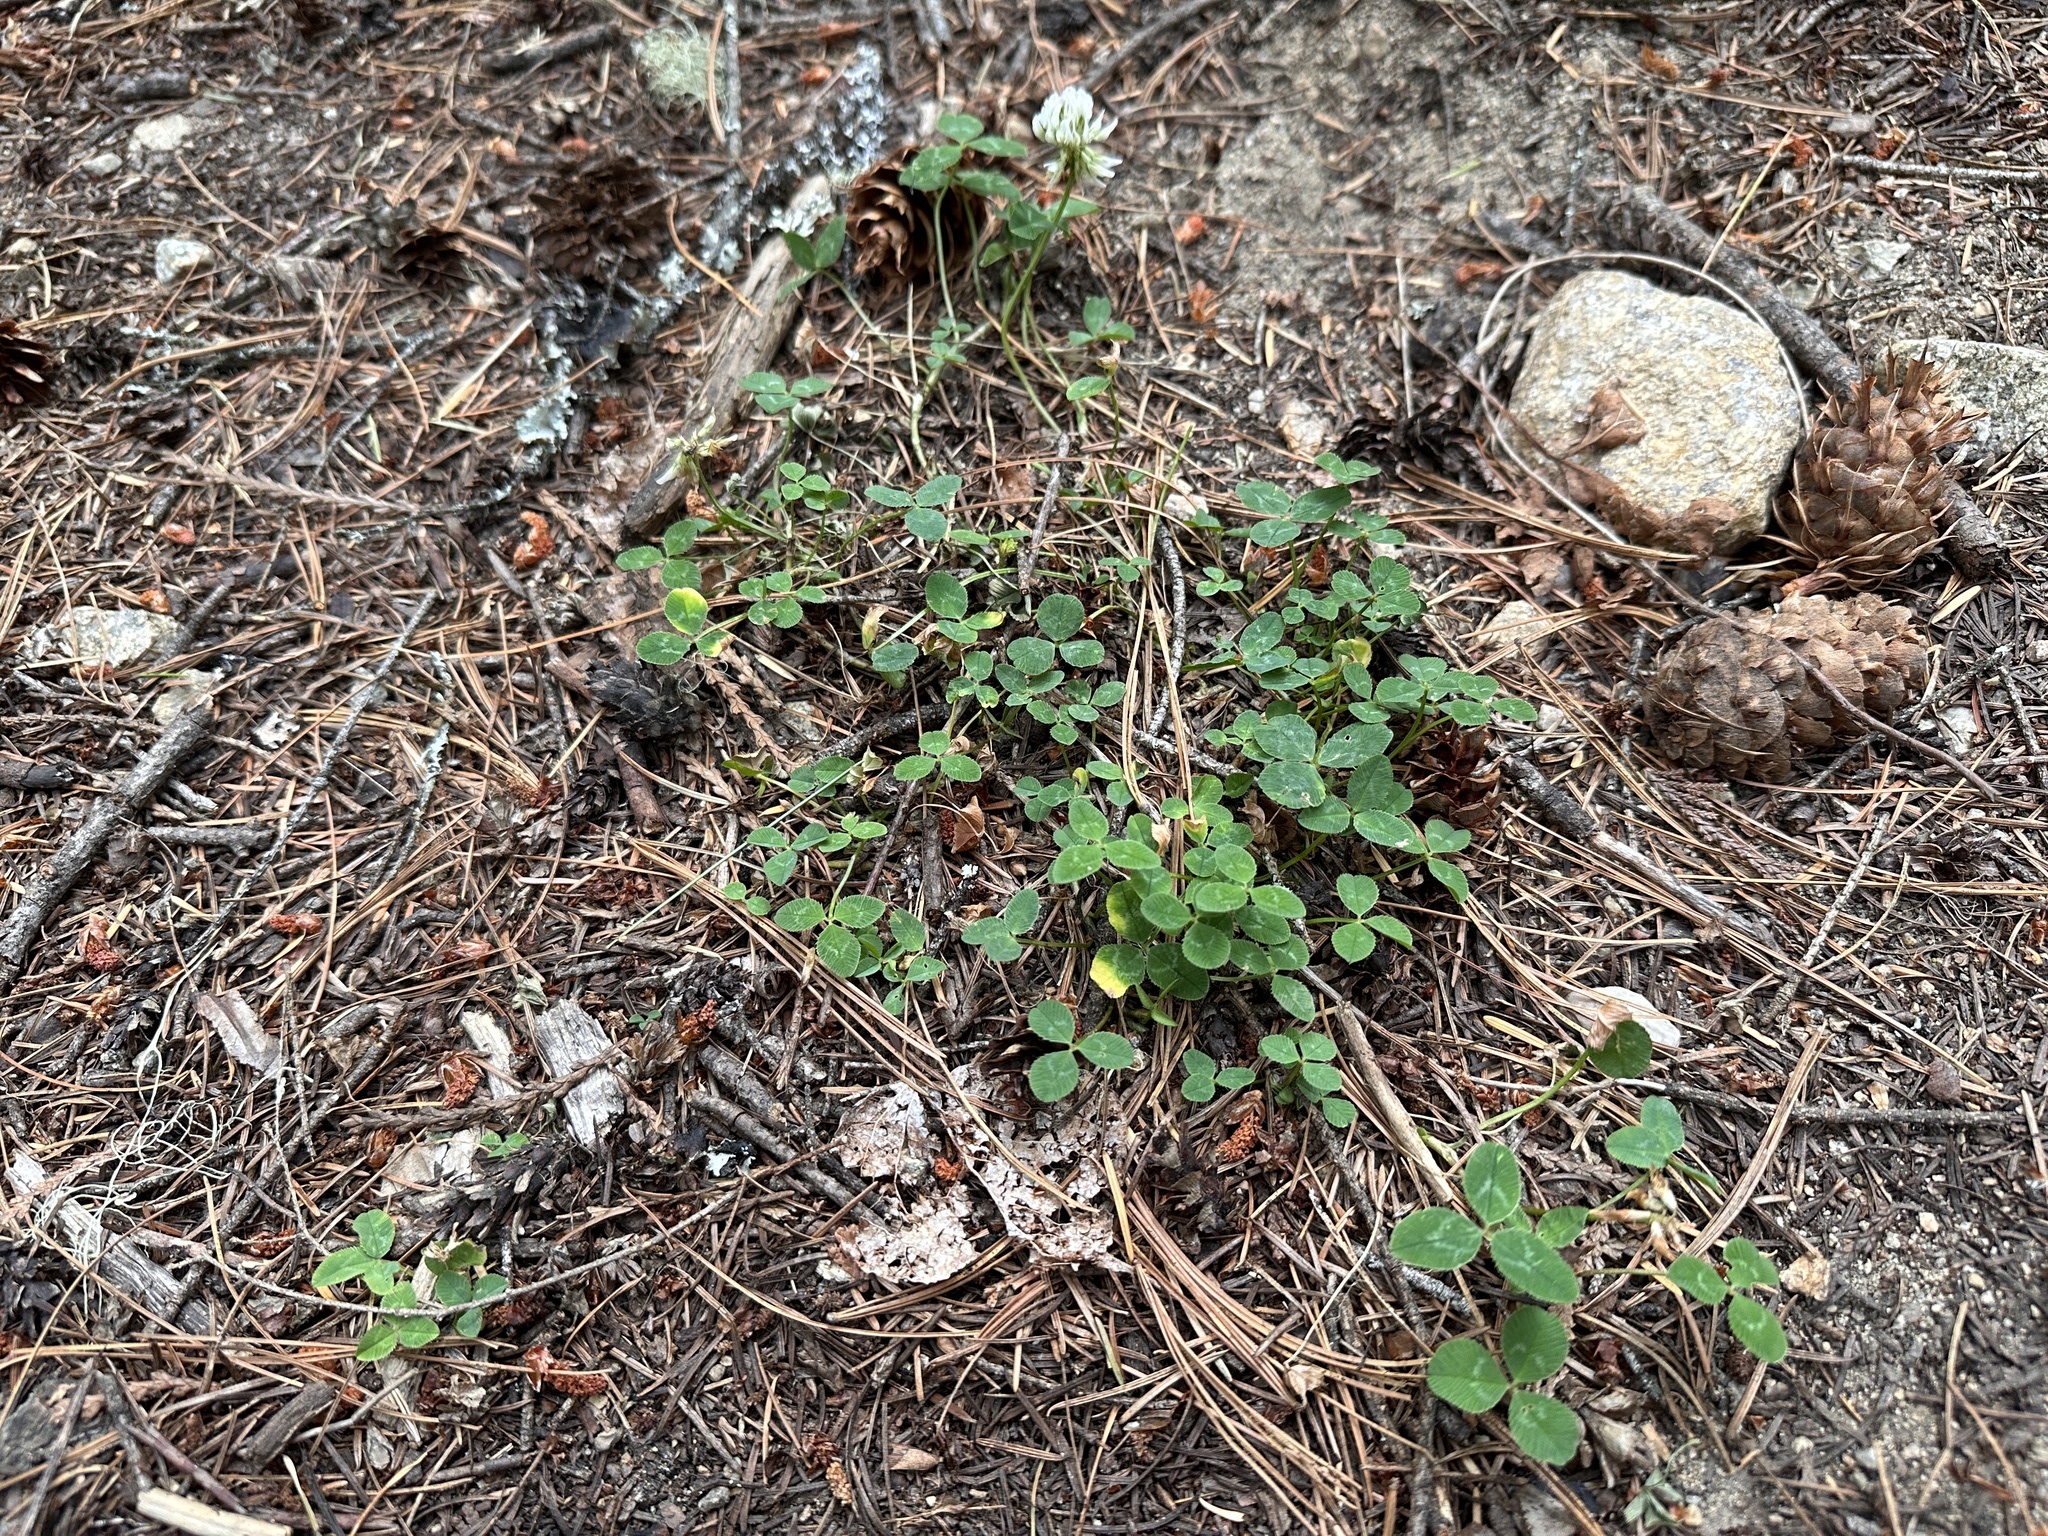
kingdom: Plantae
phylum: Tracheophyta
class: Magnoliopsida
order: Fabales
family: Fabaceae
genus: Trifolium
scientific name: Trifolium repens
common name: White clover
